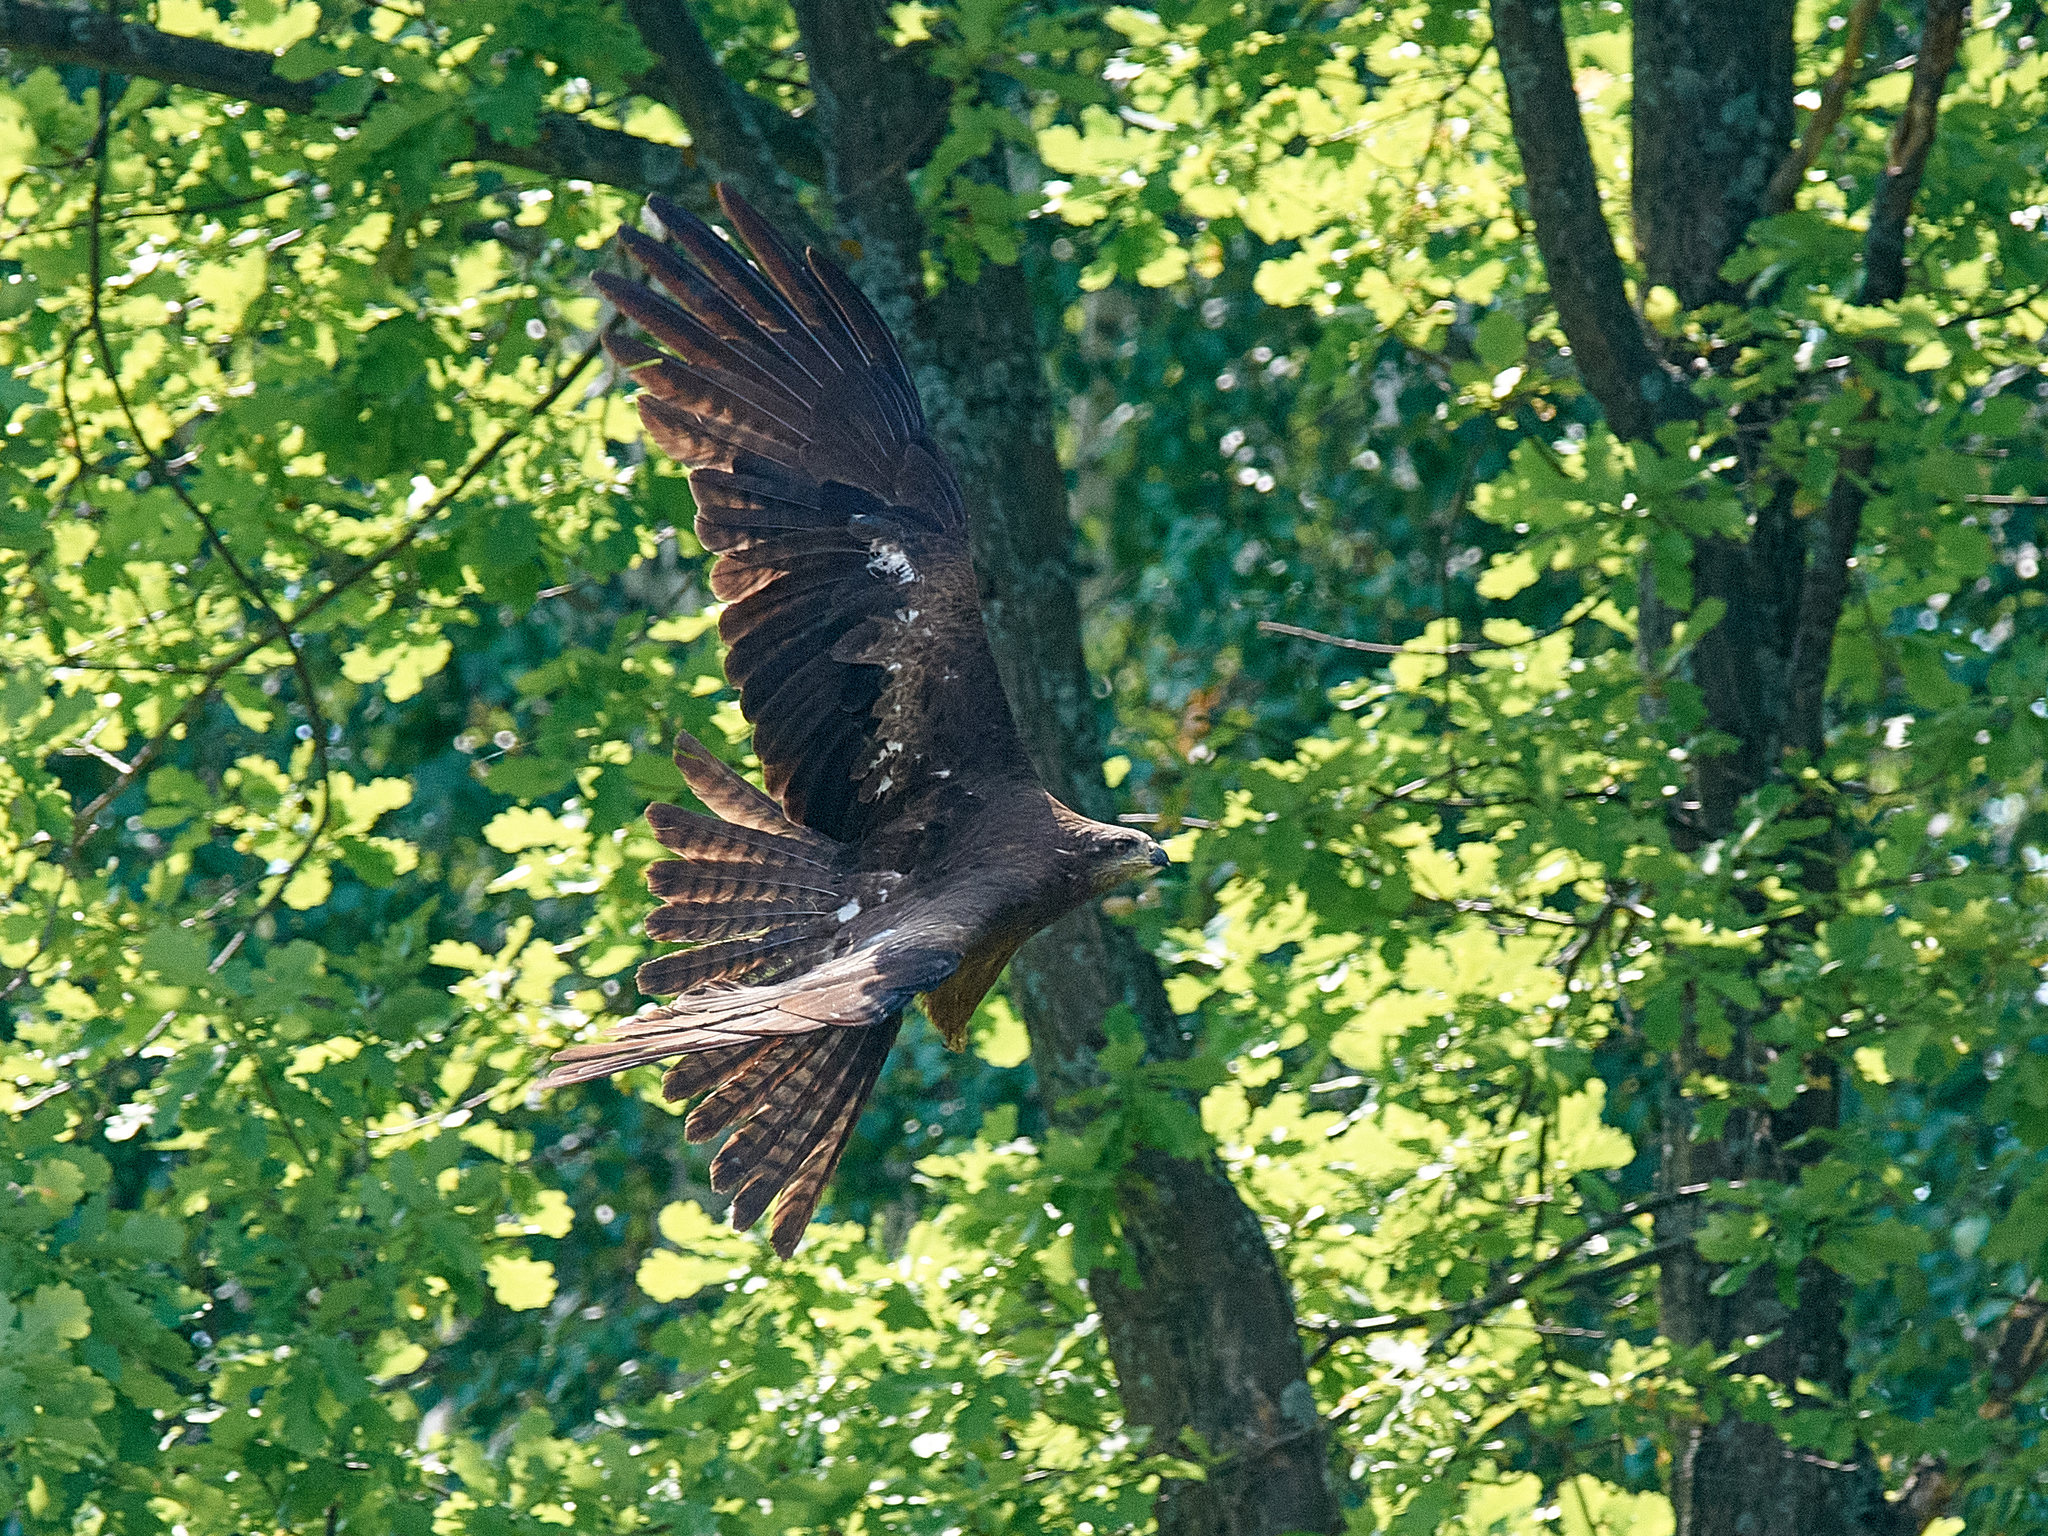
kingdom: Animalia
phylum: Chordata
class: Aves
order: Accipitriformes
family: Accipitridae
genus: Milvus
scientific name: Milvus migrans
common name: Black kite
